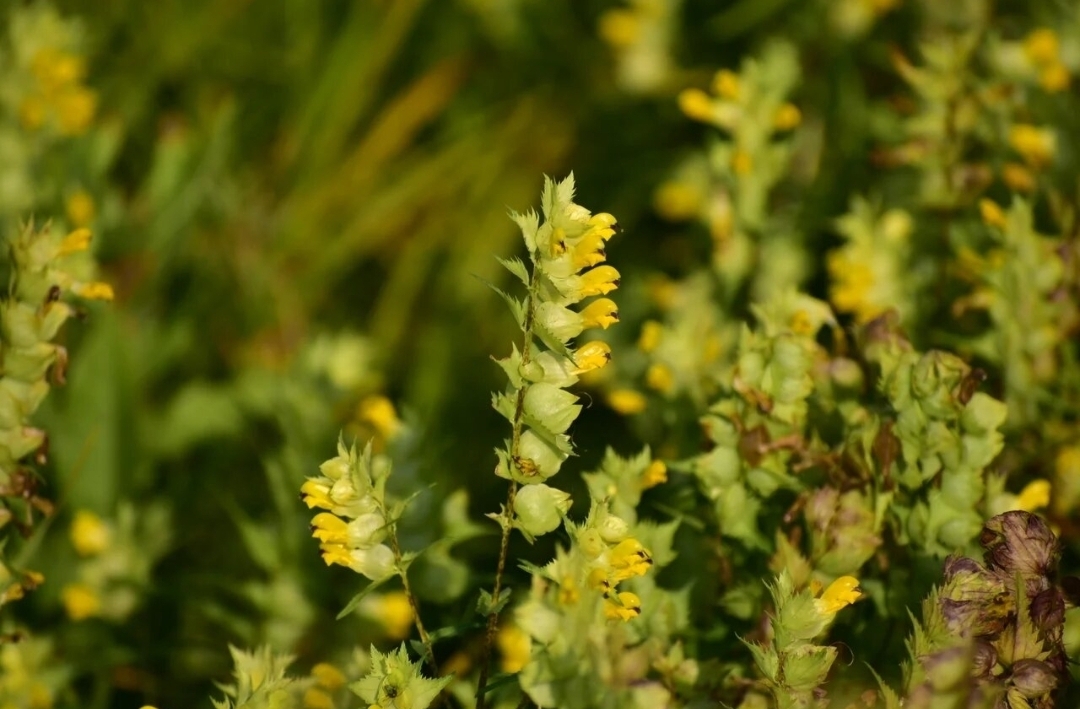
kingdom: Plantae
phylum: Tracheophyta
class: Magnoliopsida
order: Lamiales
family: Orobanchaceae
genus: Rhinanthus
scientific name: Rhinanthus serotinus
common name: Late-flowering yellow rattle
